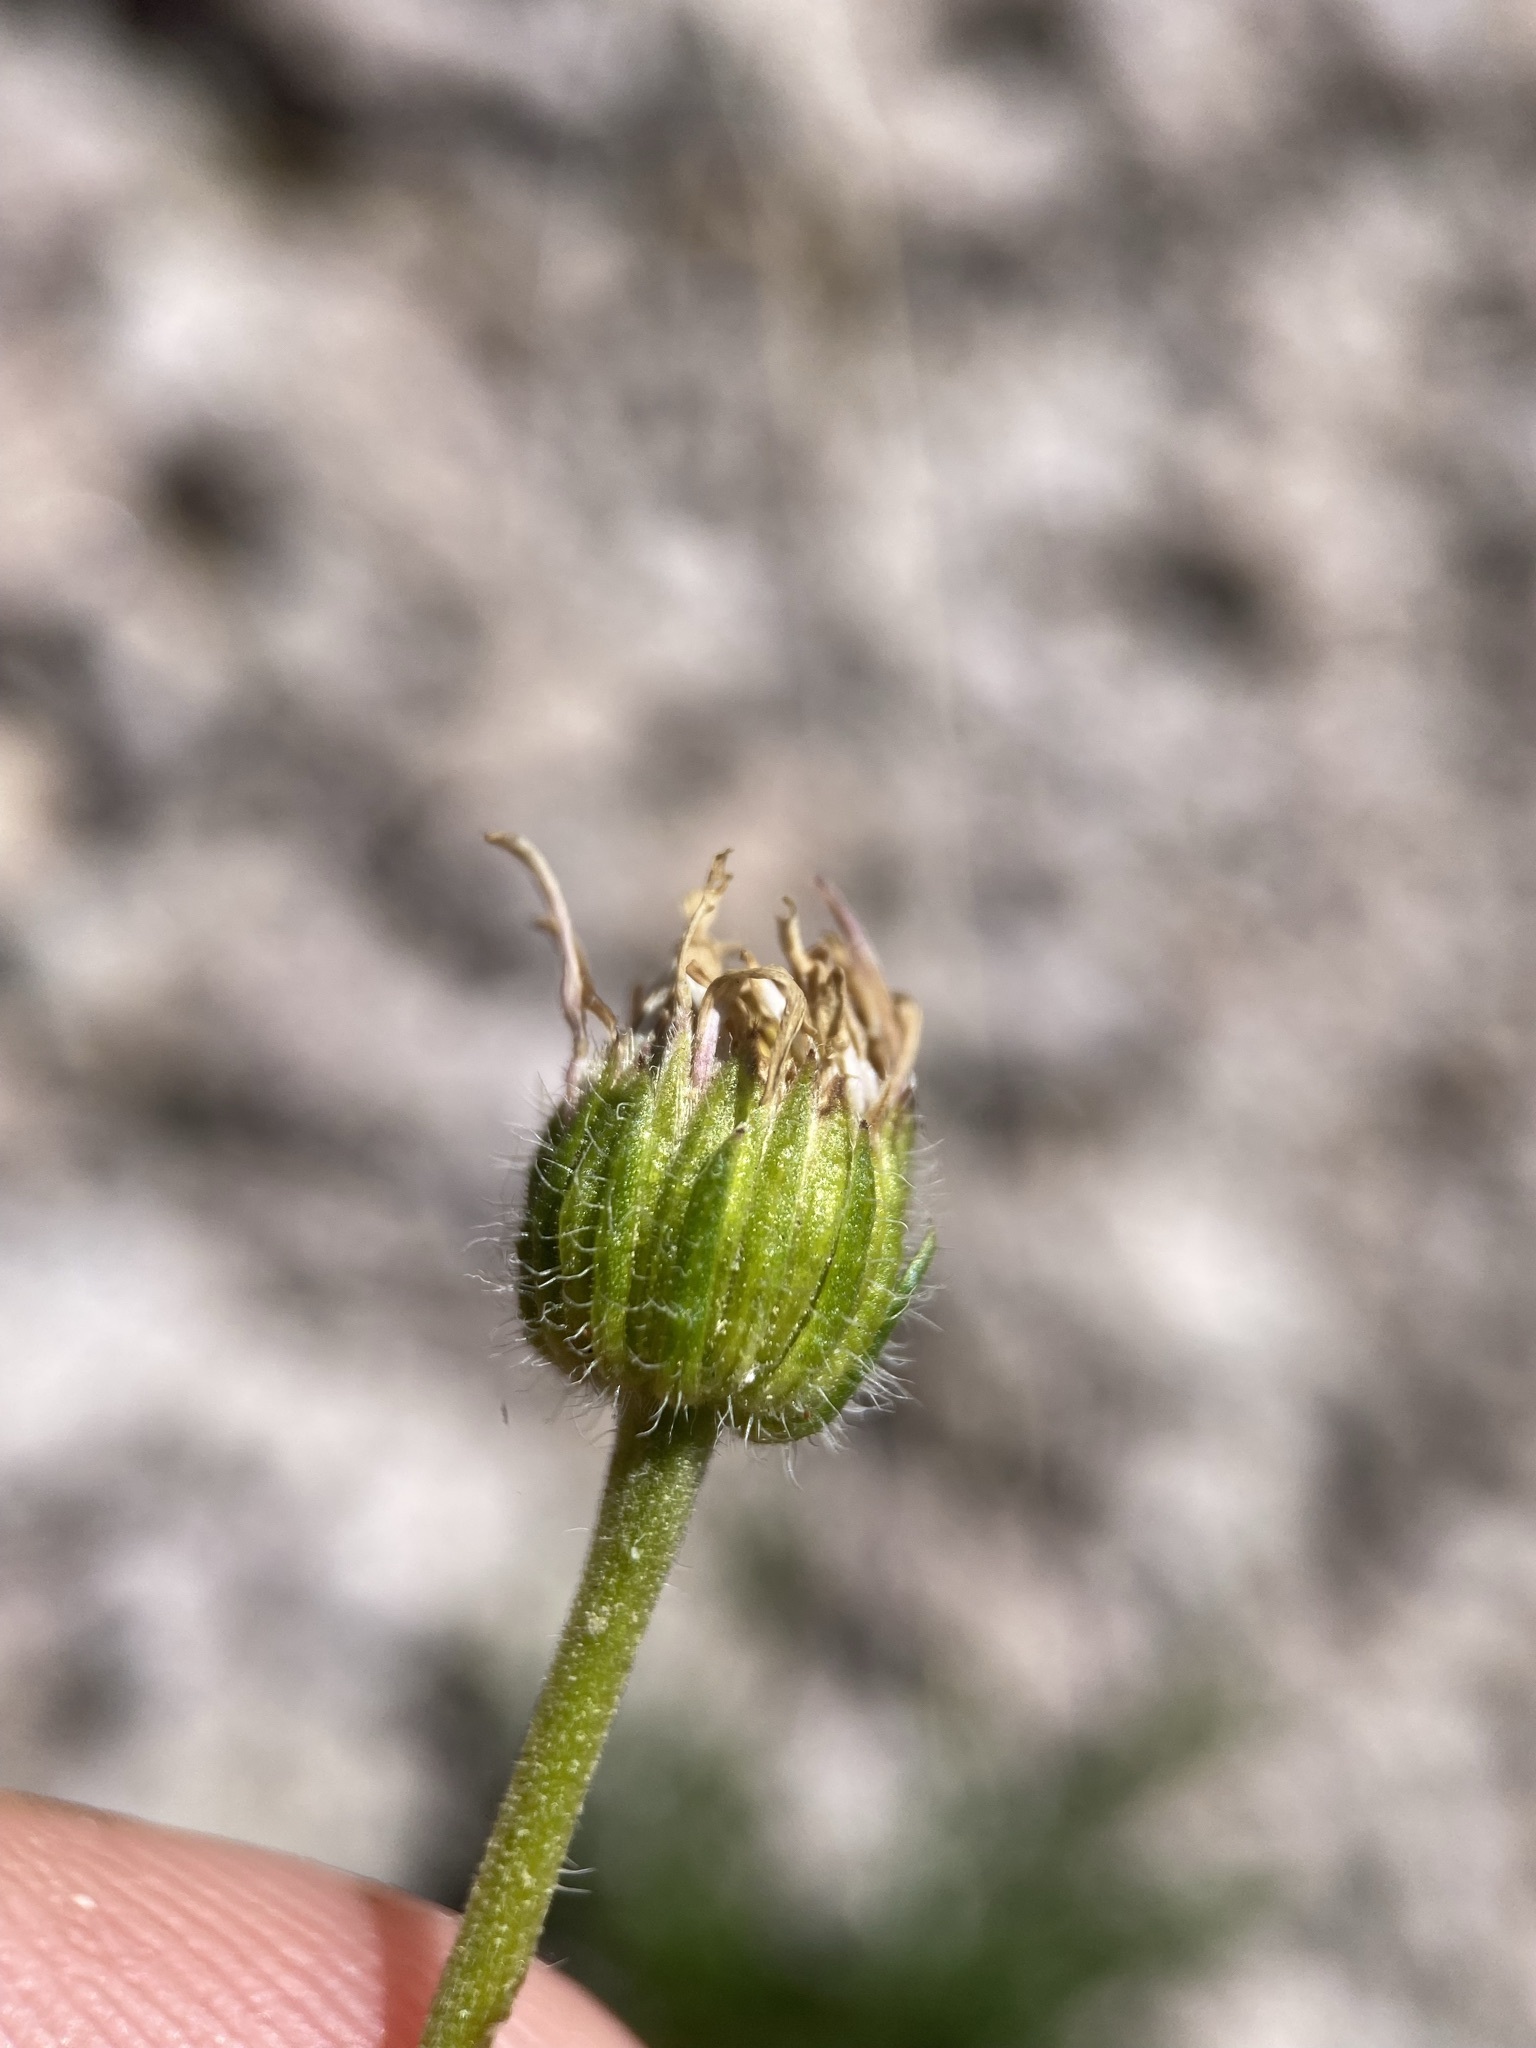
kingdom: Plantae
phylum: Tracheophyta
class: Magnoliopsida
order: Asterales
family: Asteraceae
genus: Erigeron
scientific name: Erigeron compositus
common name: Dwarf mountain fleabane
